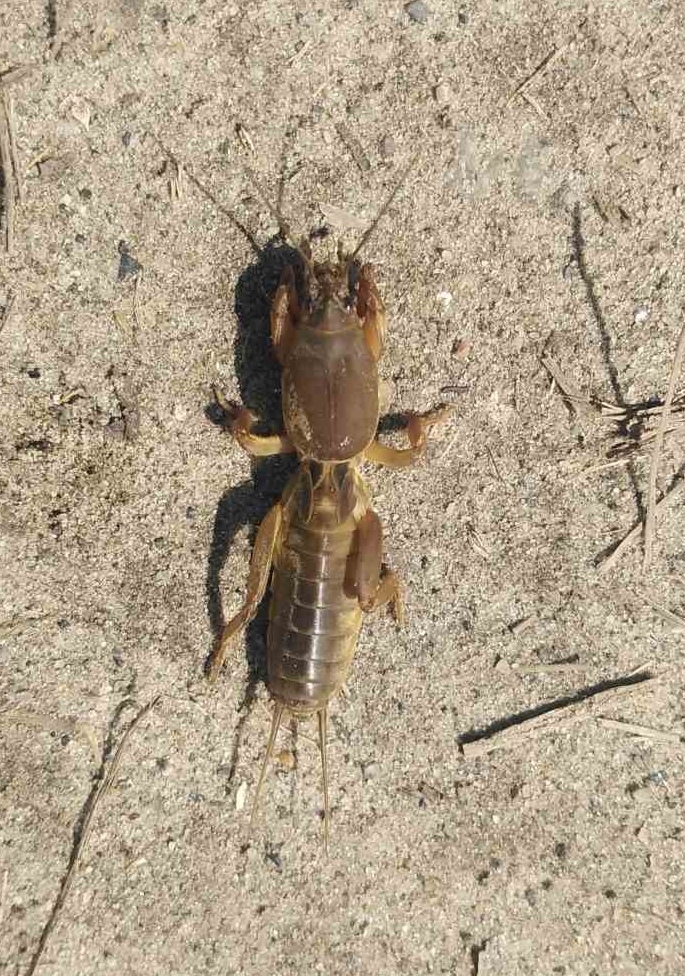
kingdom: Animalia
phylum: Arthropoda
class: Insecta
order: Orthoptera
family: Gryllotalpidae
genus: Gryllotalpa
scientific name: Gryllotalpa gryllotalpa
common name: European mole cricket
